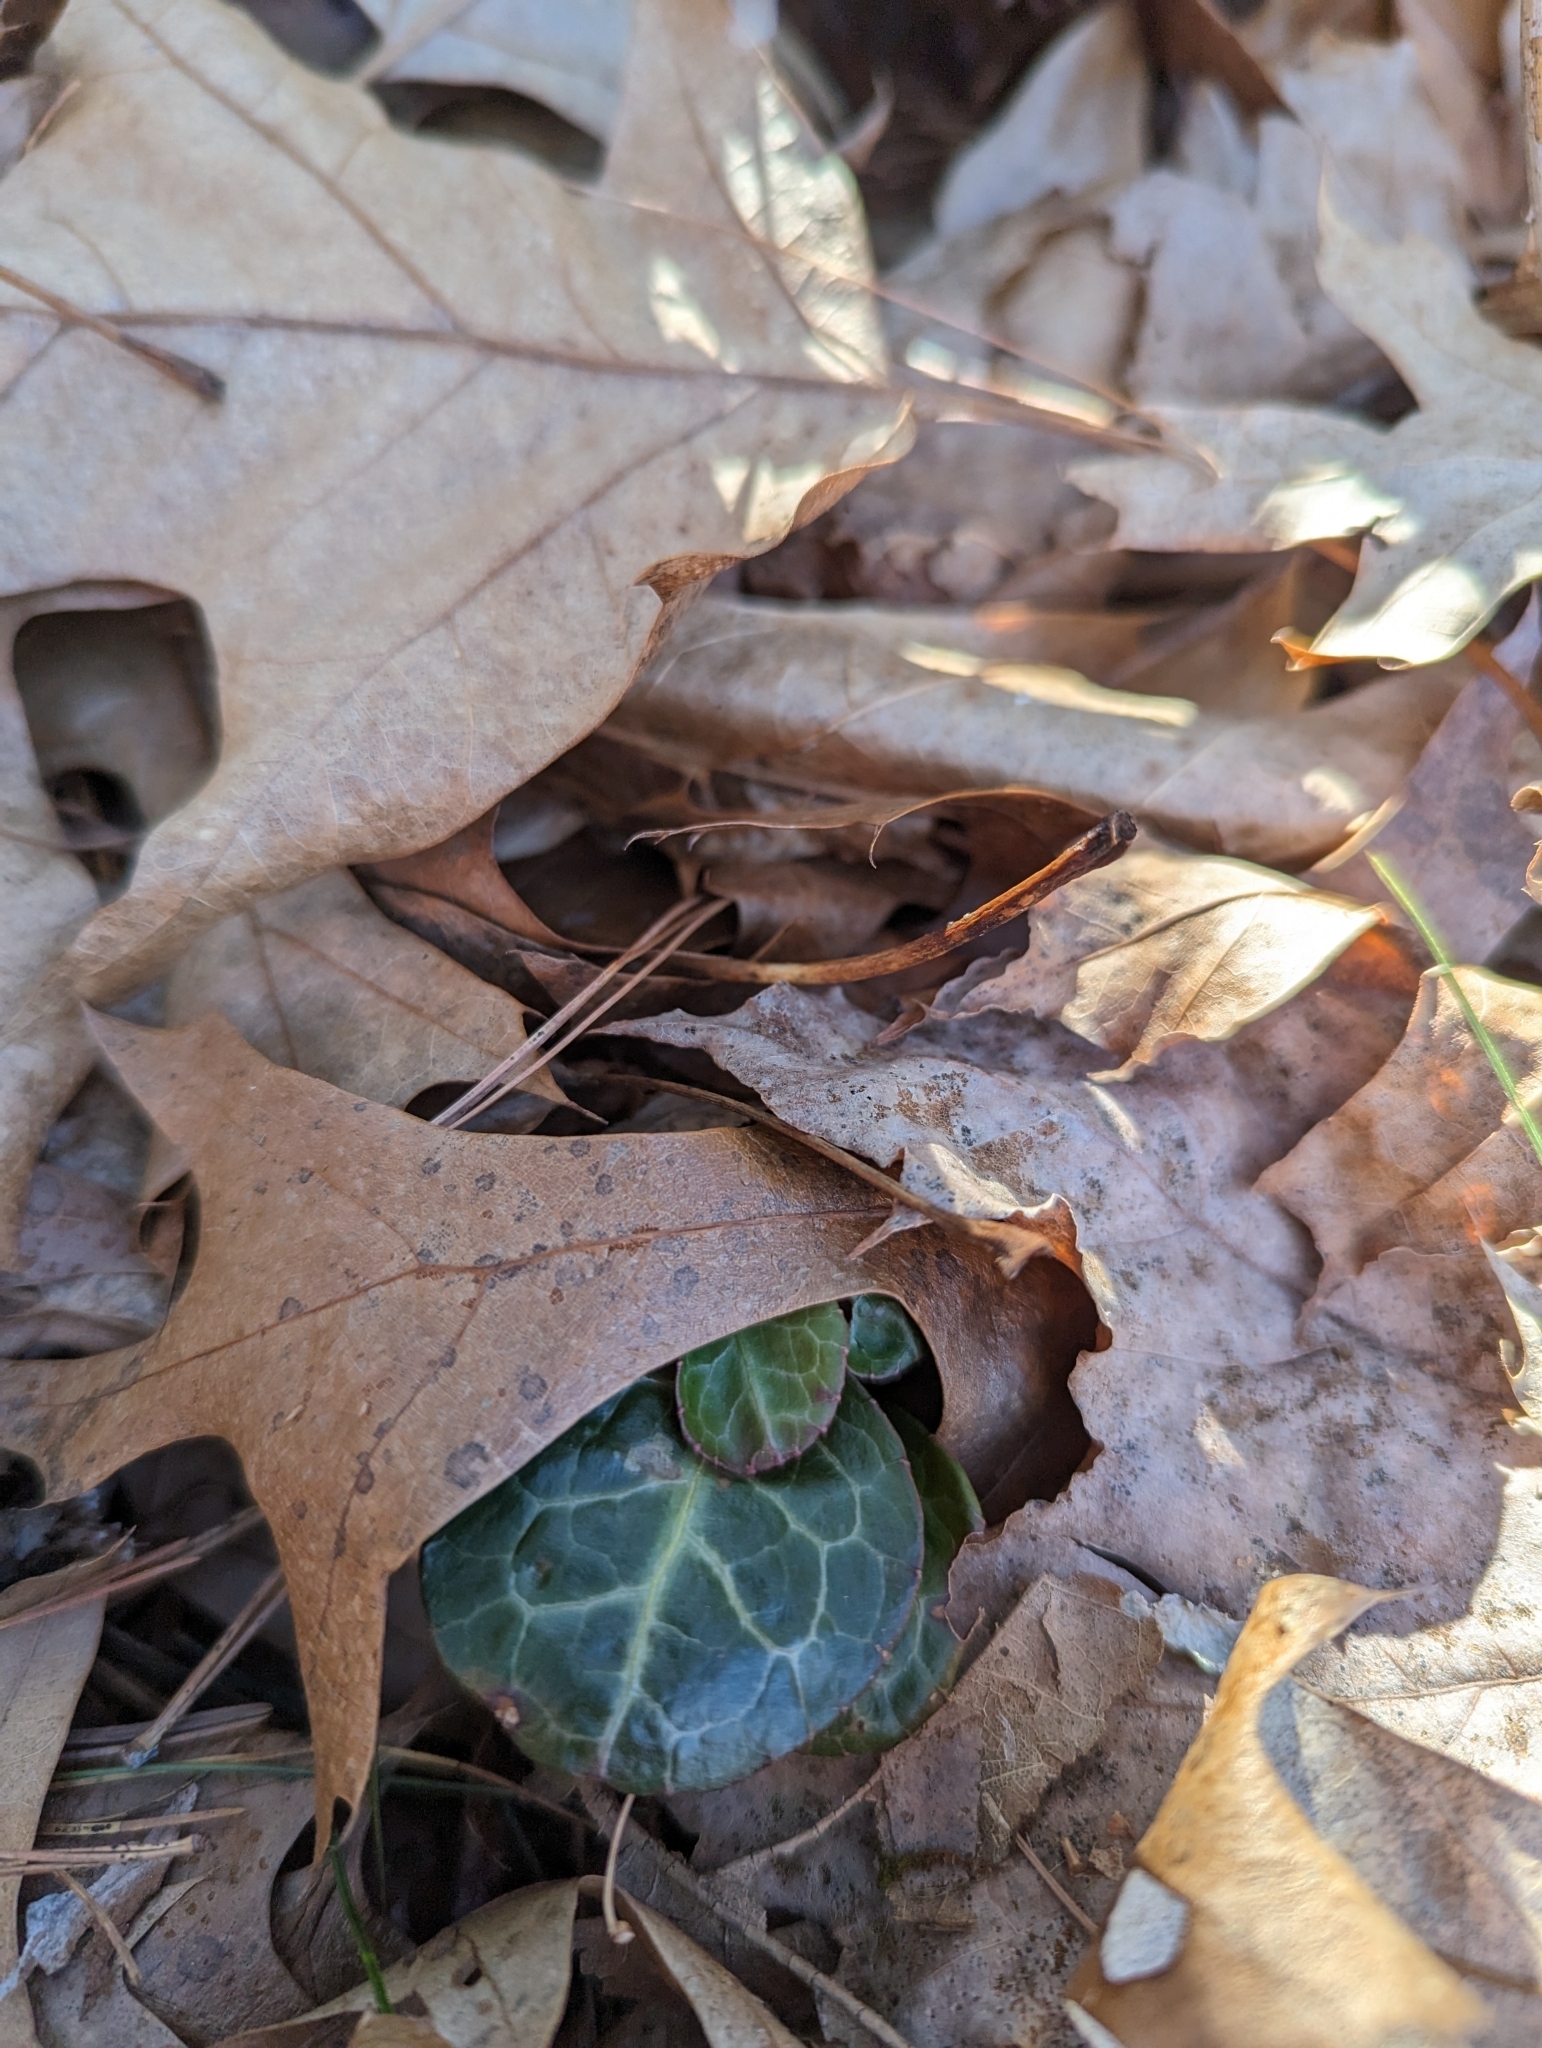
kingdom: Plantae
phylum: Tracheophyta
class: Magnoliopsida
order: Ericales
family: Ericaceae
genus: Pyrola
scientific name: Pyrola americana
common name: American wintergreen
